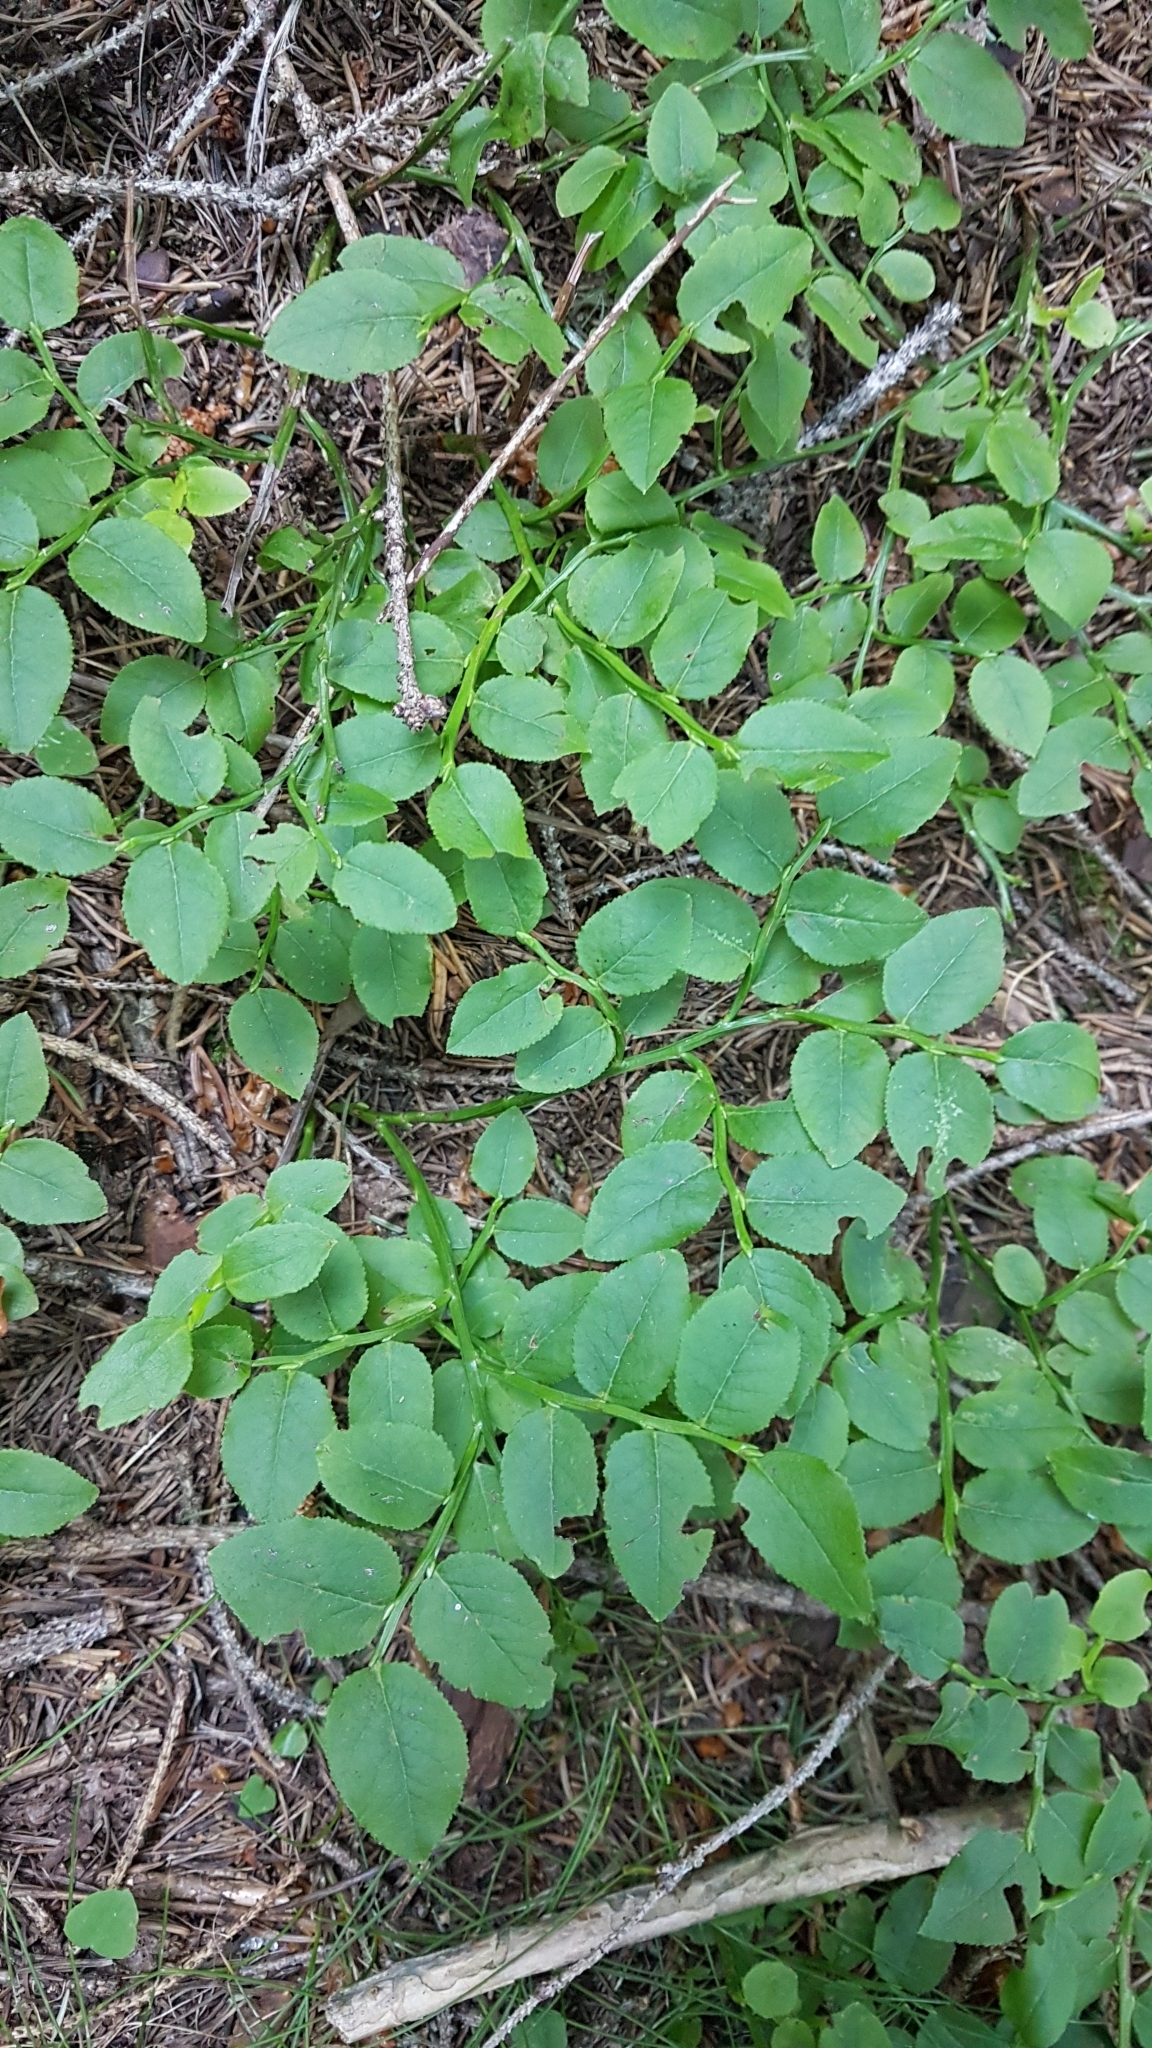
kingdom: Plantae
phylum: Tracheophyta
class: Magnoliopsida
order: Ericales
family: Ericaceae
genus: Vaccinium
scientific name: Vaccinium myrtillus
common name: Bilberry
